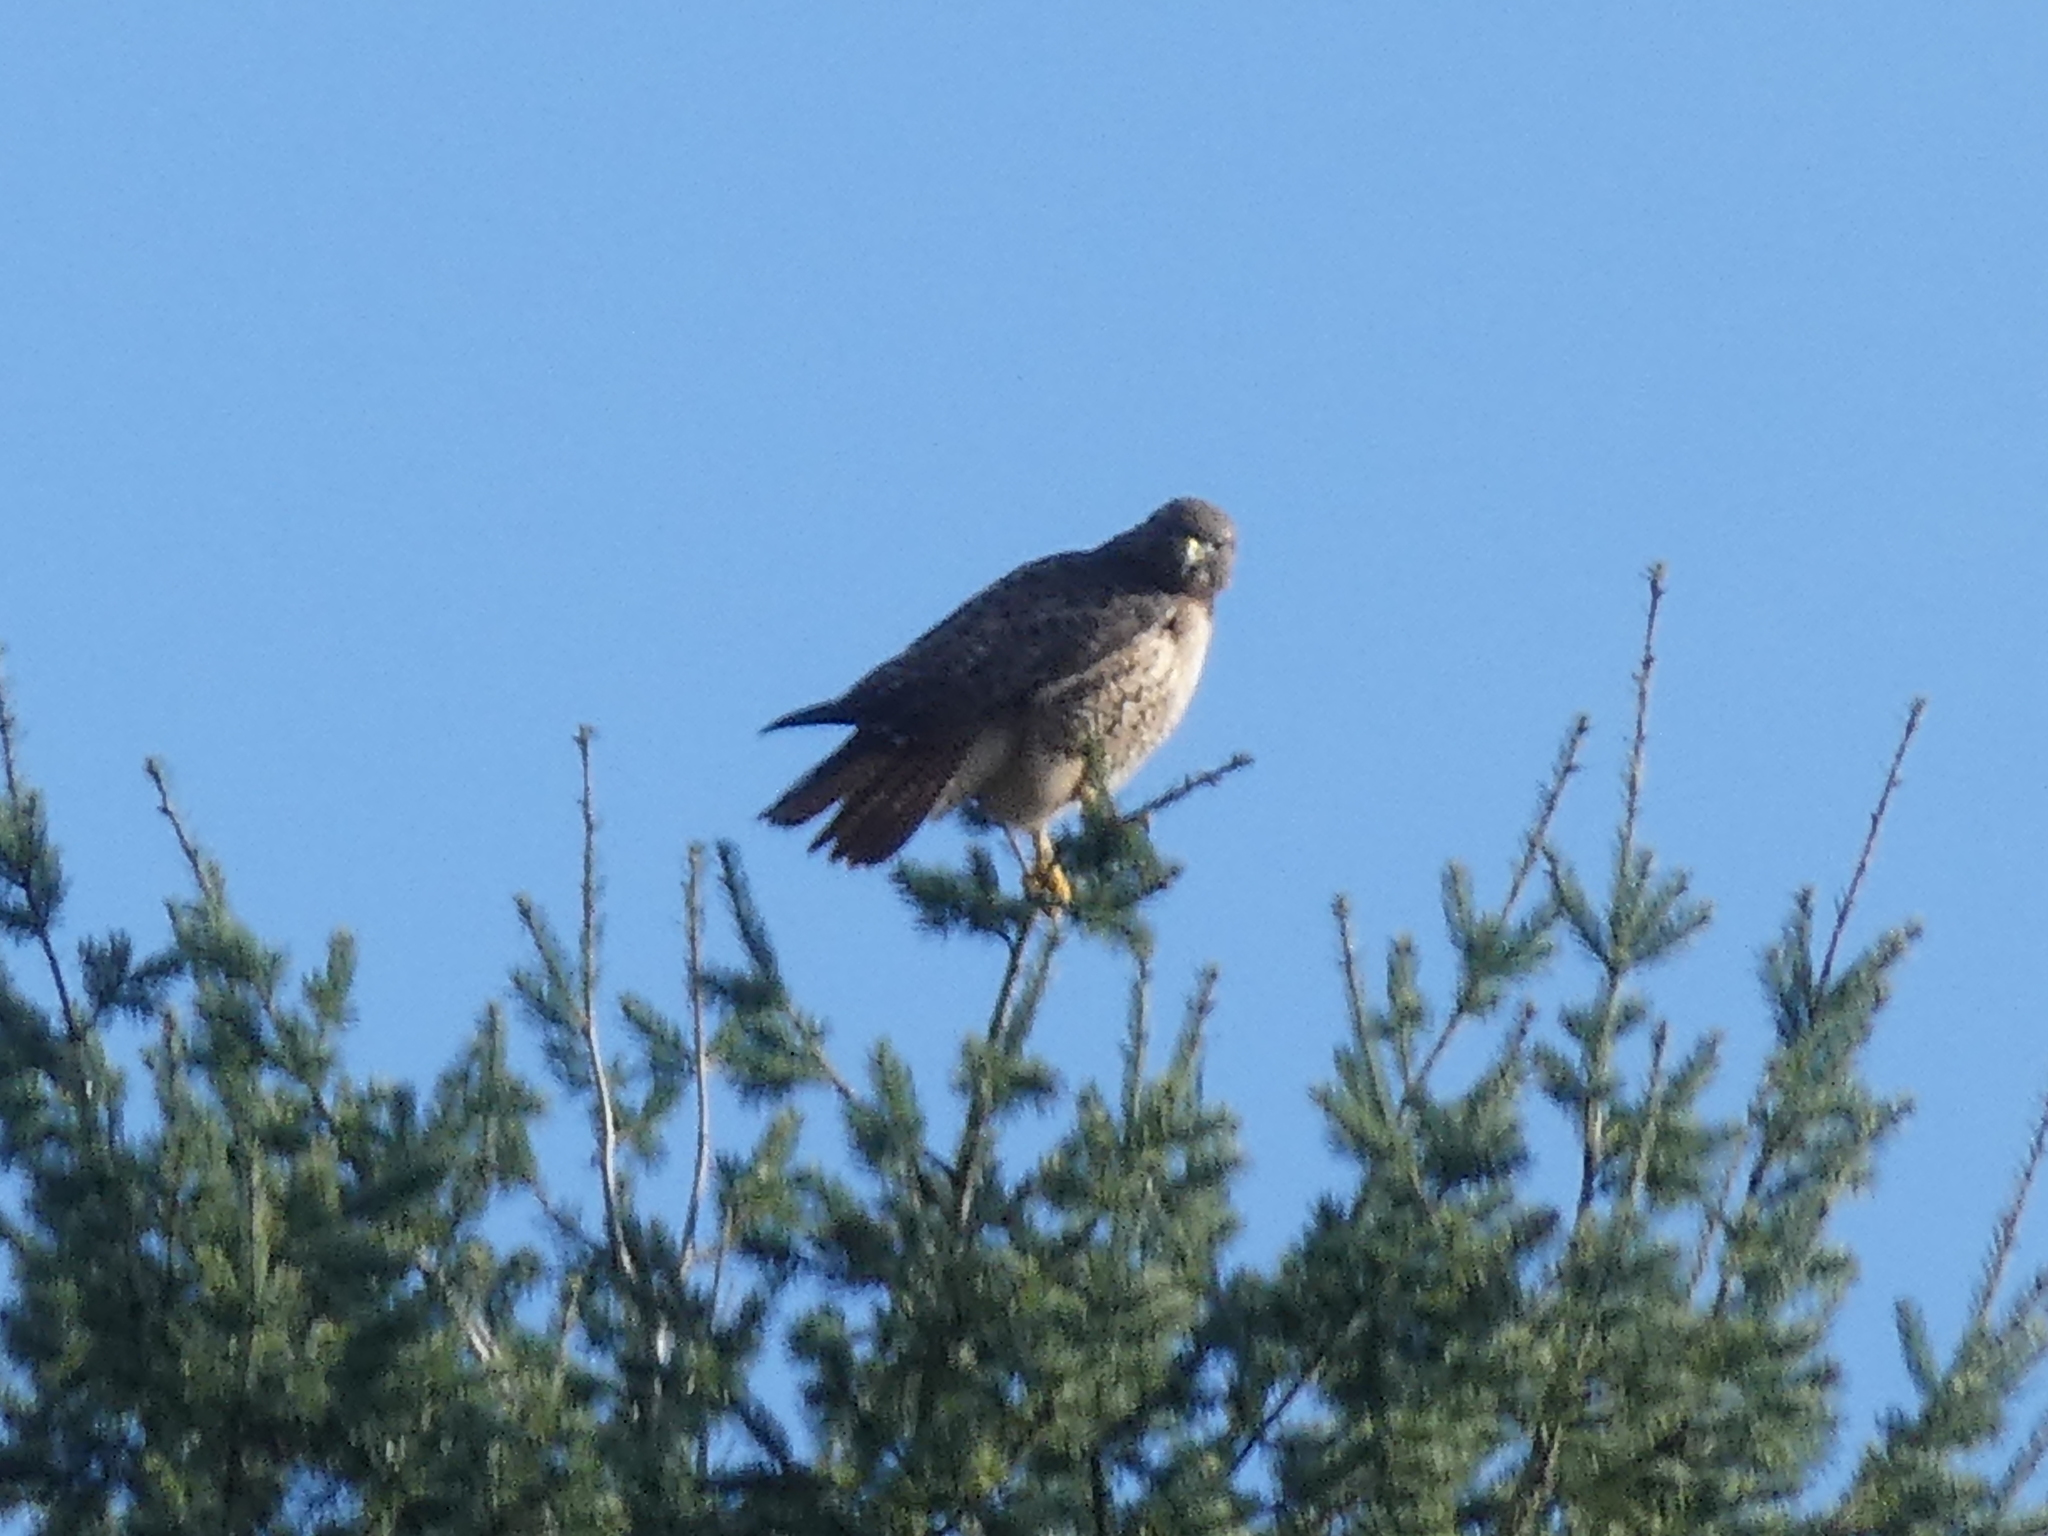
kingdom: Animalia
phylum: Chordata
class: Aves
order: Accipitriformes
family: Accipitridae
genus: Buteo
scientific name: Buteo jamaicensis
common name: Red-tailed hawk
